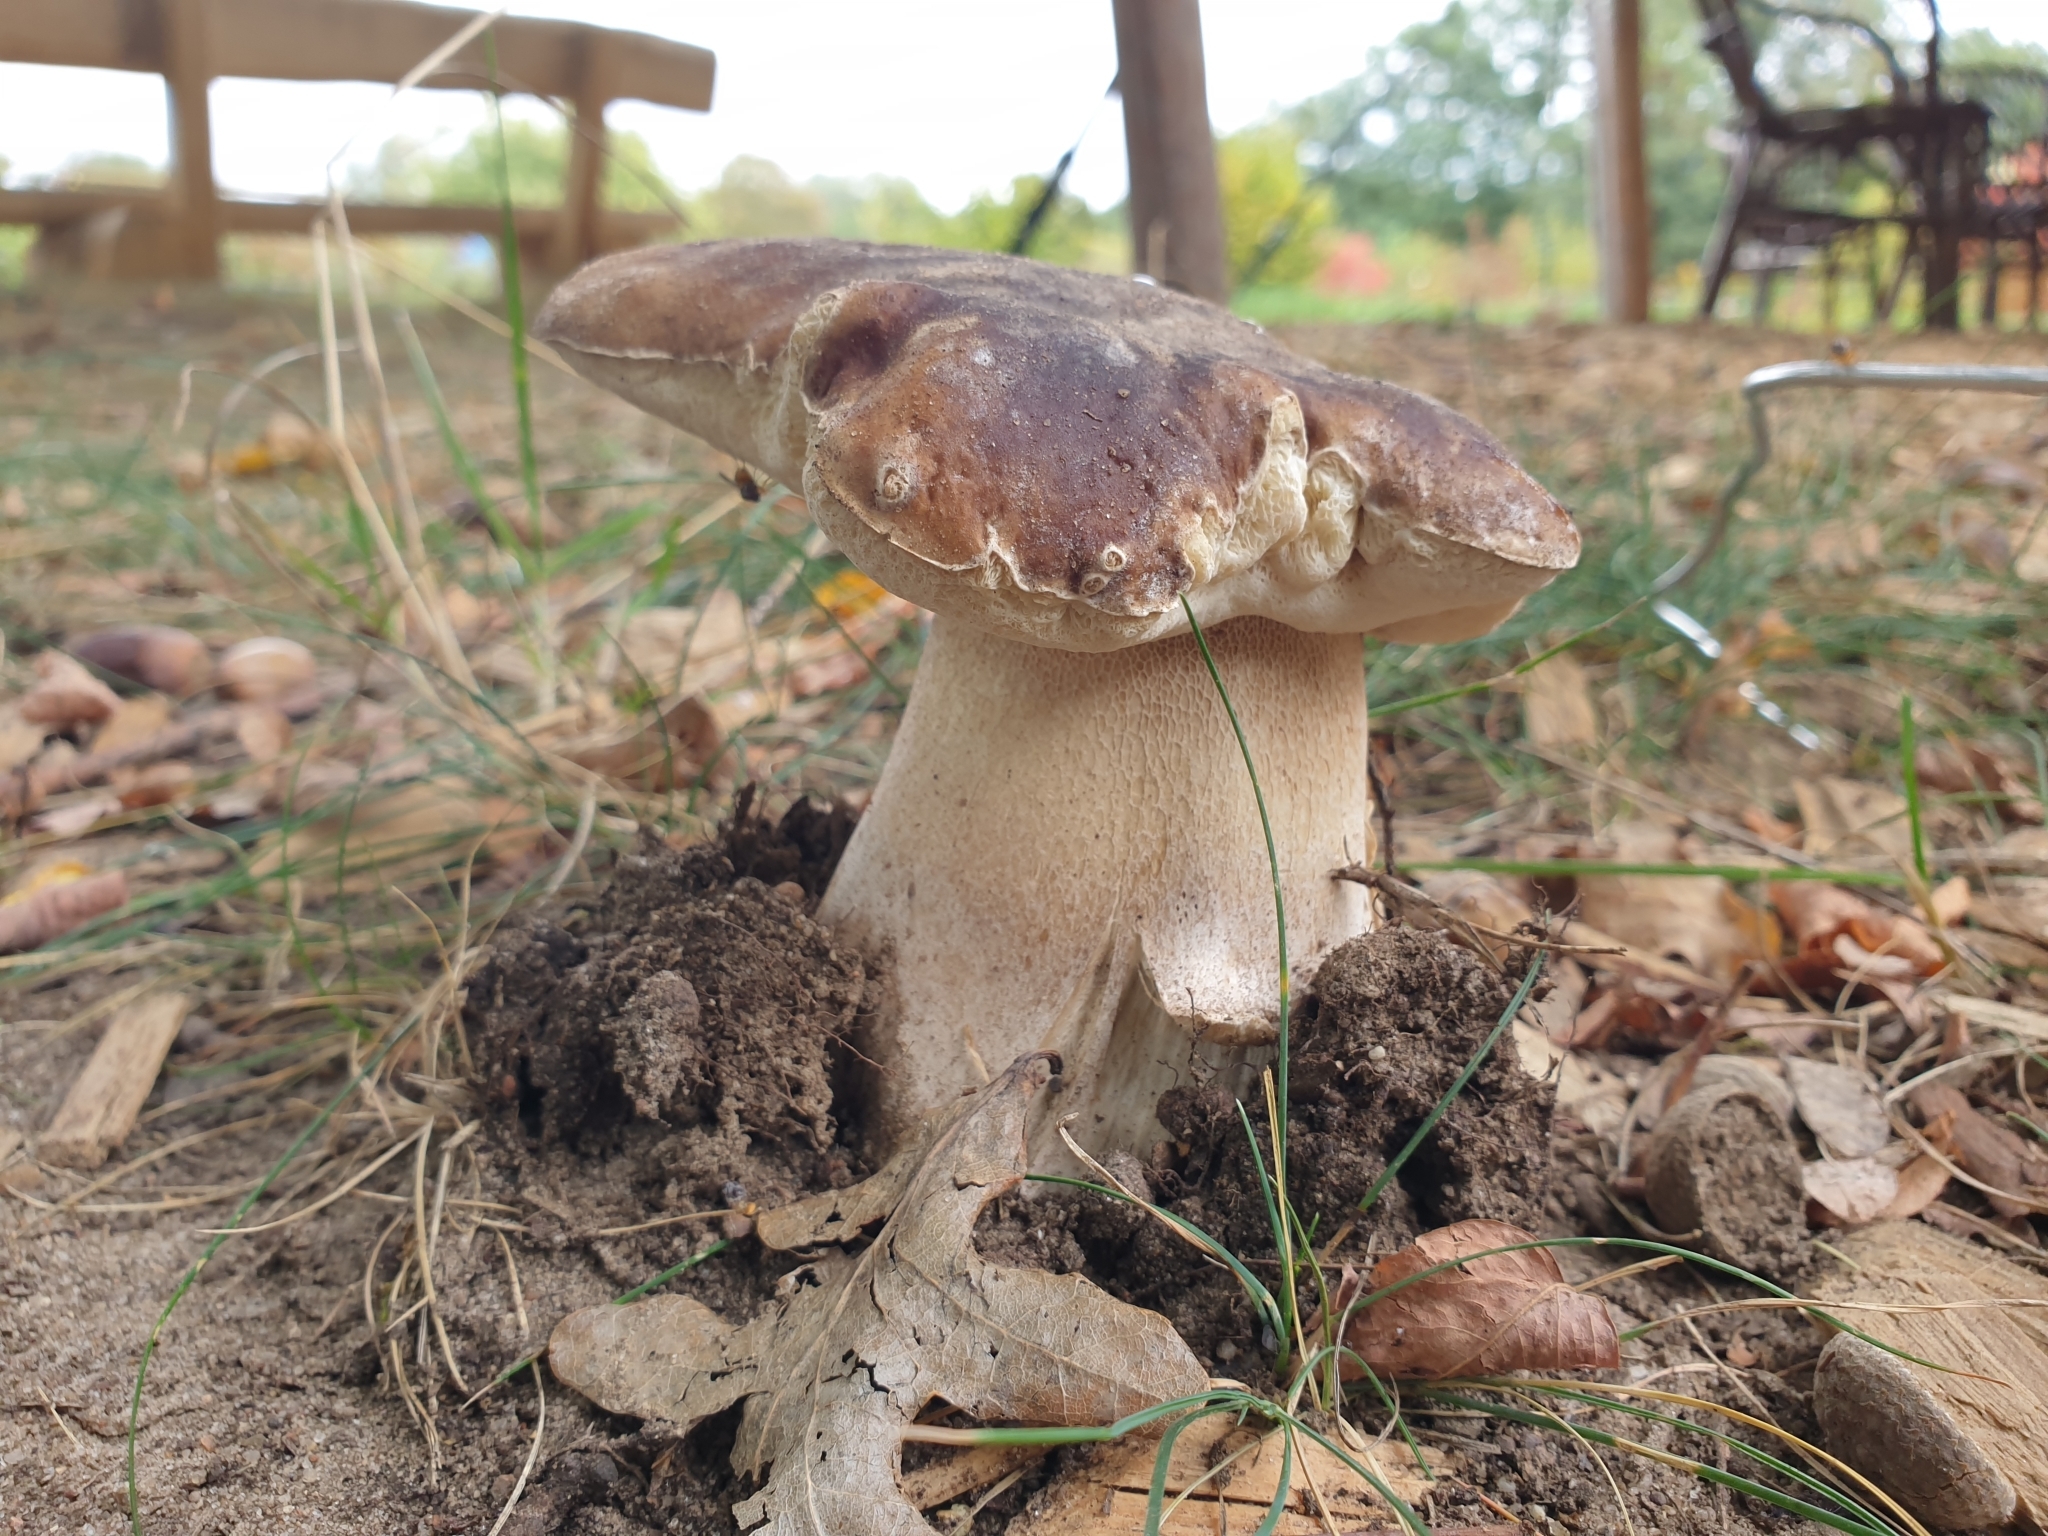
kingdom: Fungi
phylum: Basidiomycota
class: Agaricomycetes
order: Boletales
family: Boletaceae
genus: Boletus
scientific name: Boletus edulis
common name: Cep
